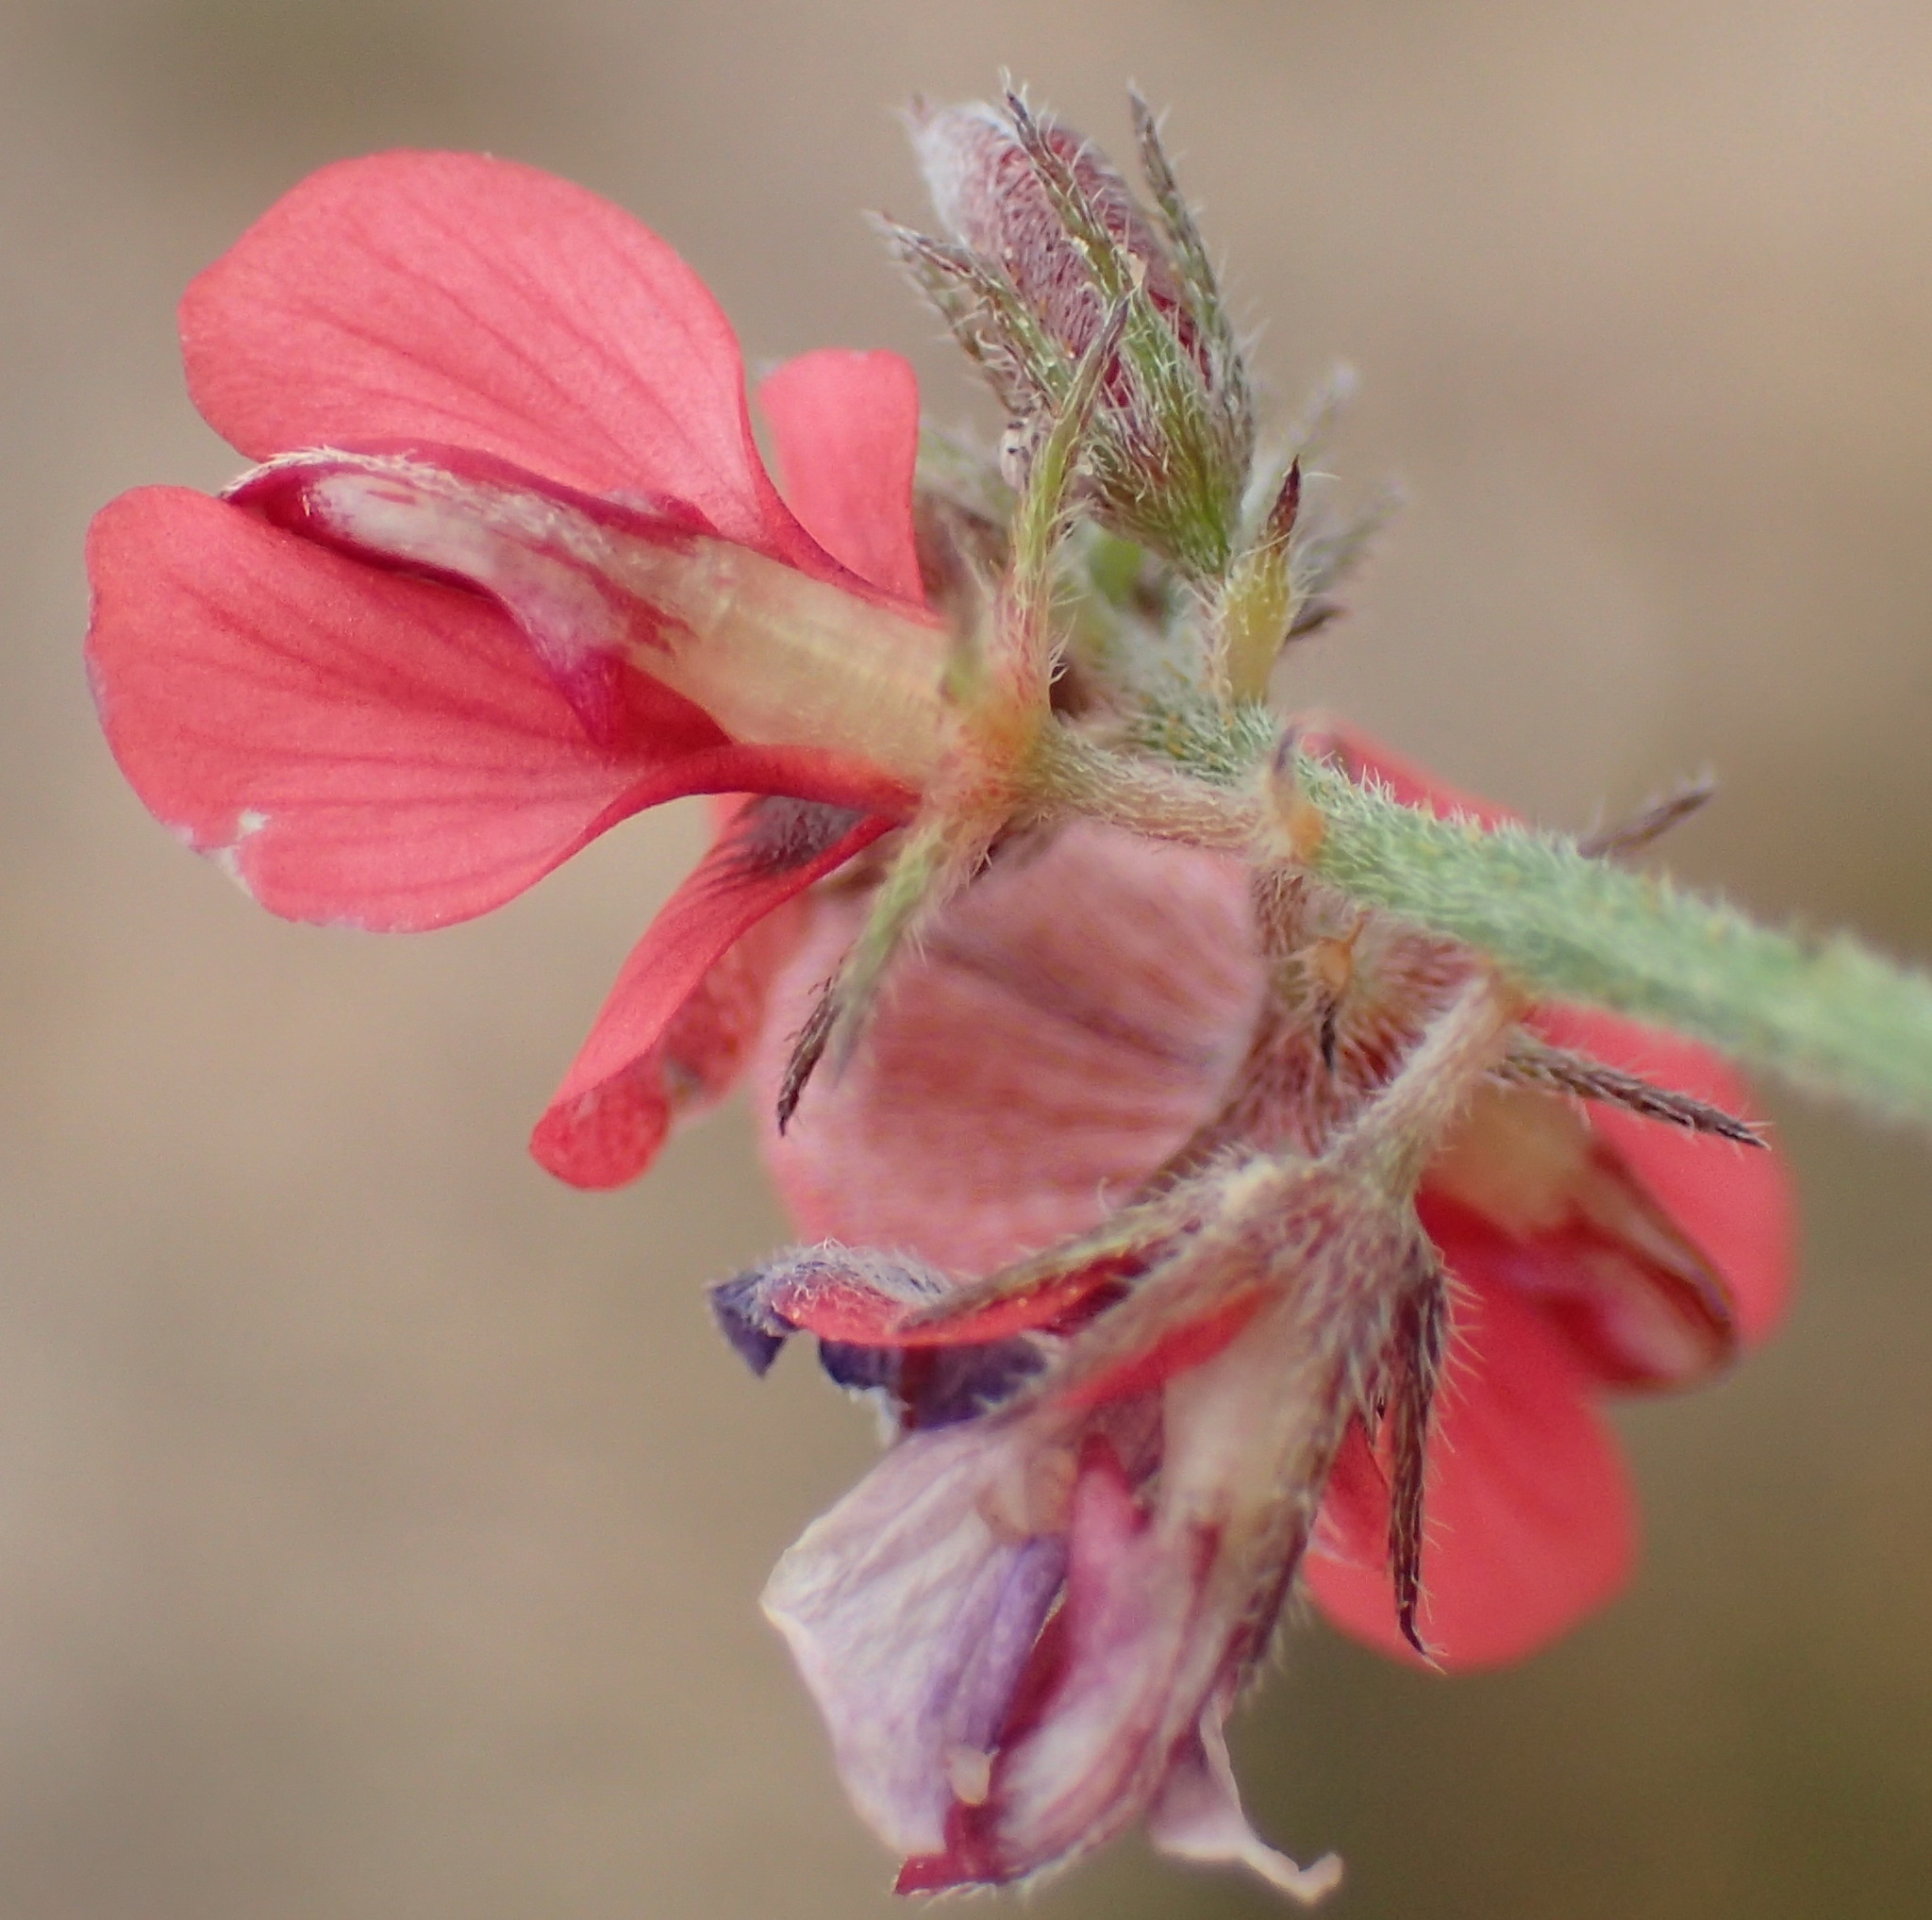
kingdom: Plantae
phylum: Tracheophyta
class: Magnoliopsida
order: Fabales
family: Fabaceae
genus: Indigofera
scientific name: Indigofera priorii
